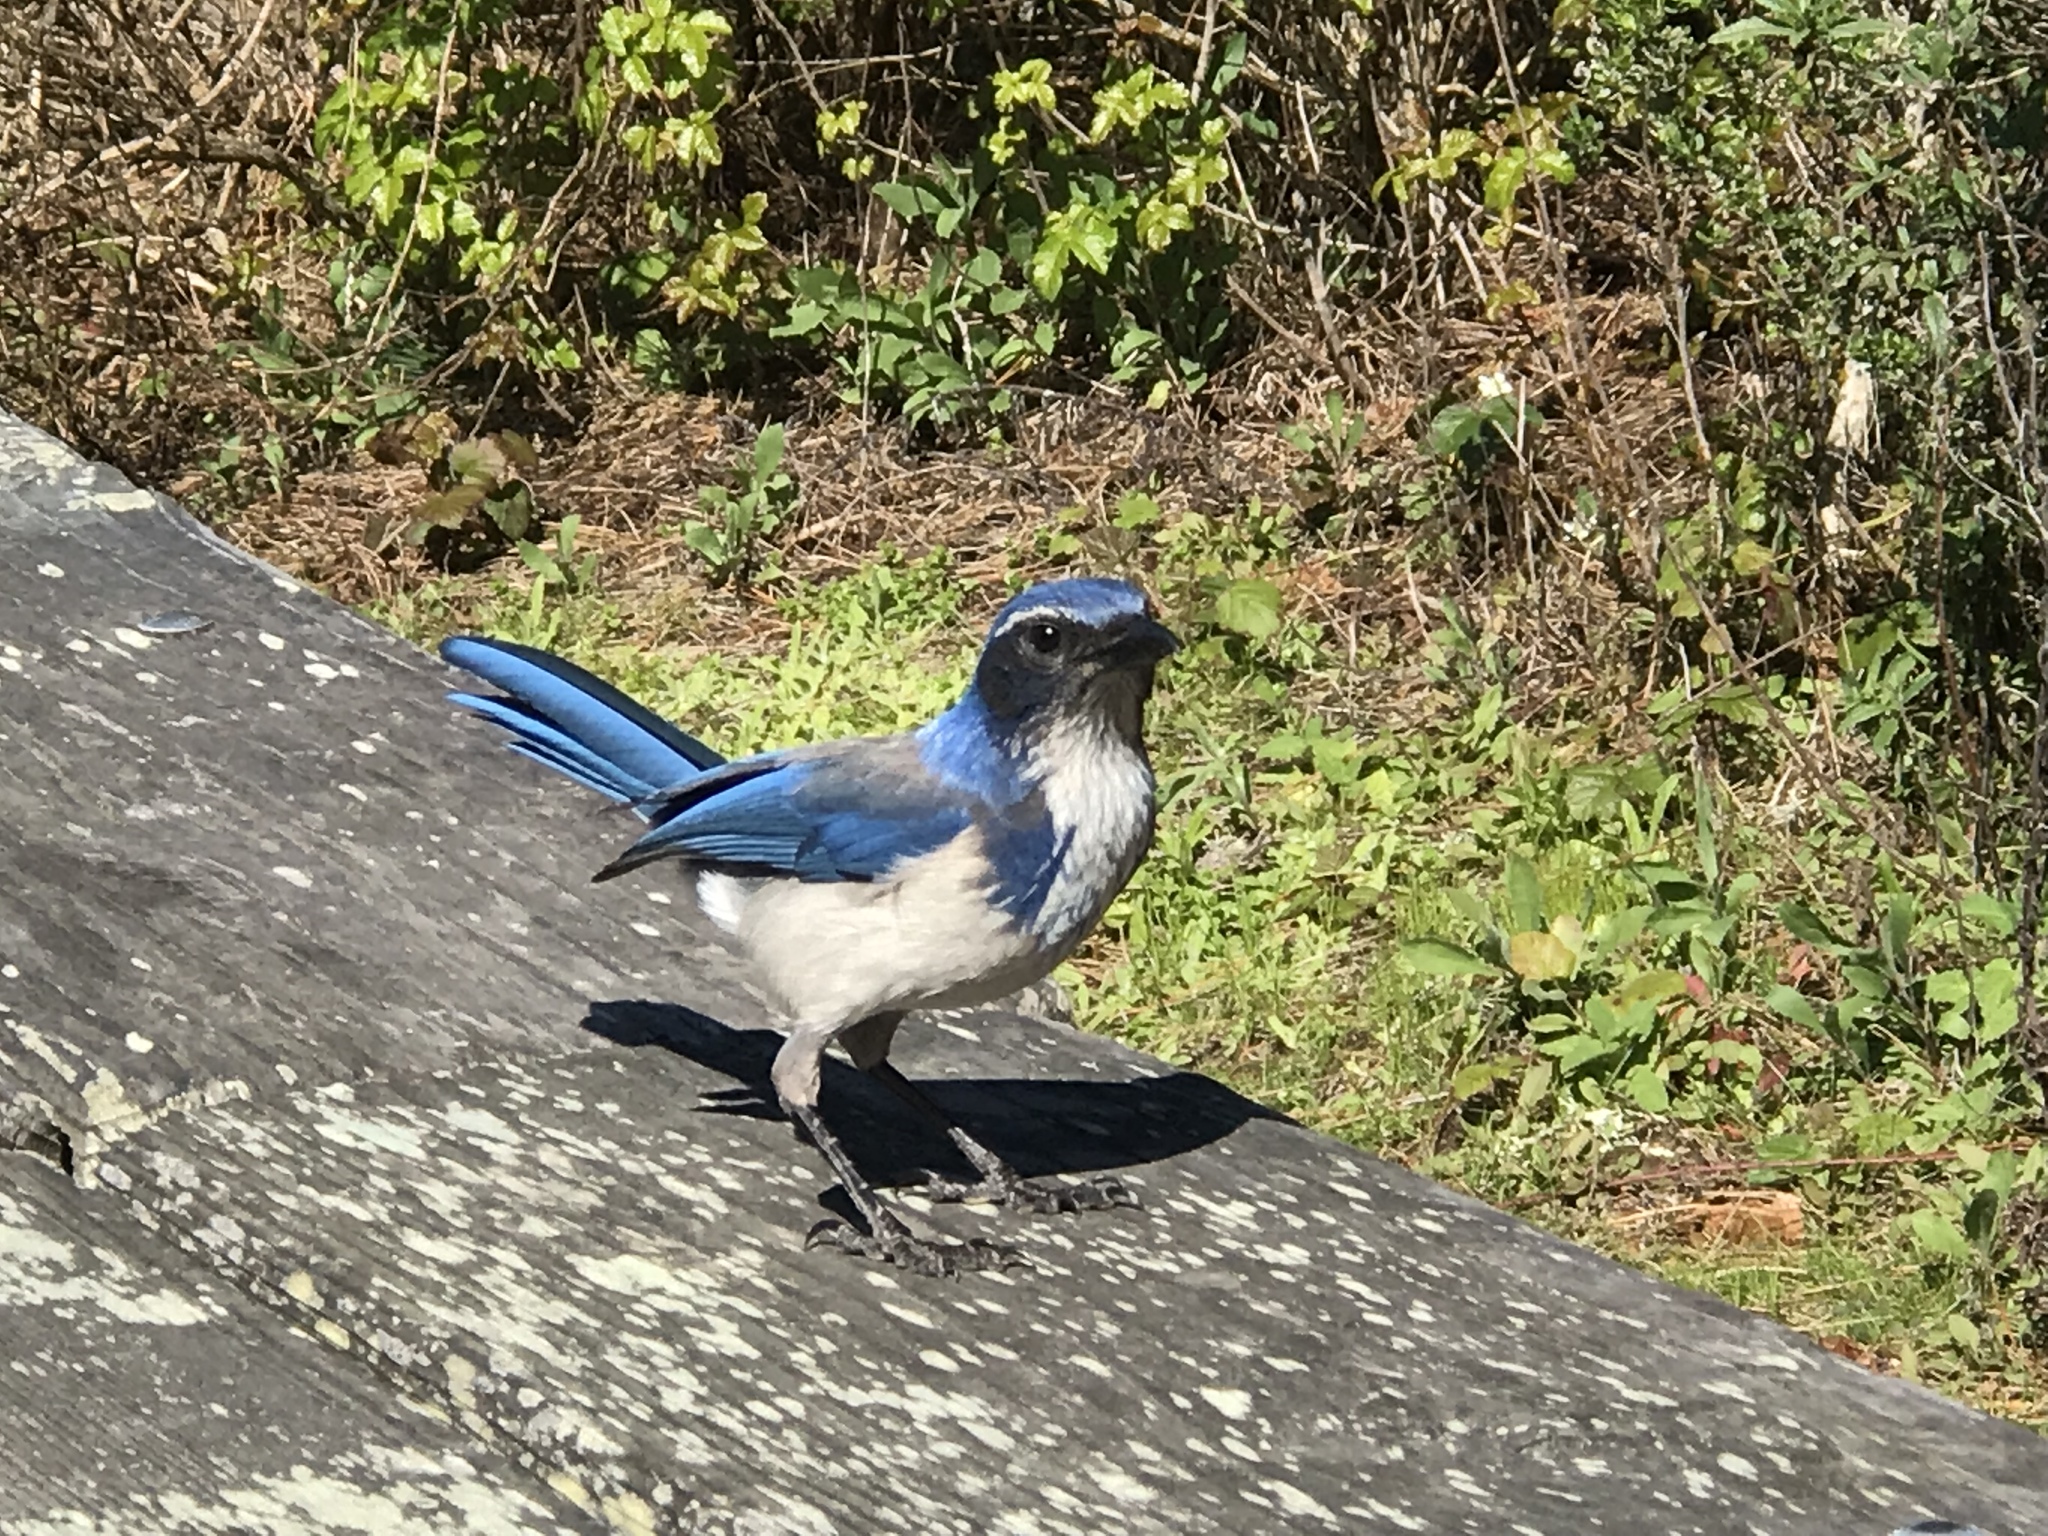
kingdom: Animalia
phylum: Chordata
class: Aves
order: Passeriformes
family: Corvidae
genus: Aphelocoma
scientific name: Aphelocoma californica
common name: California scrub-jay
